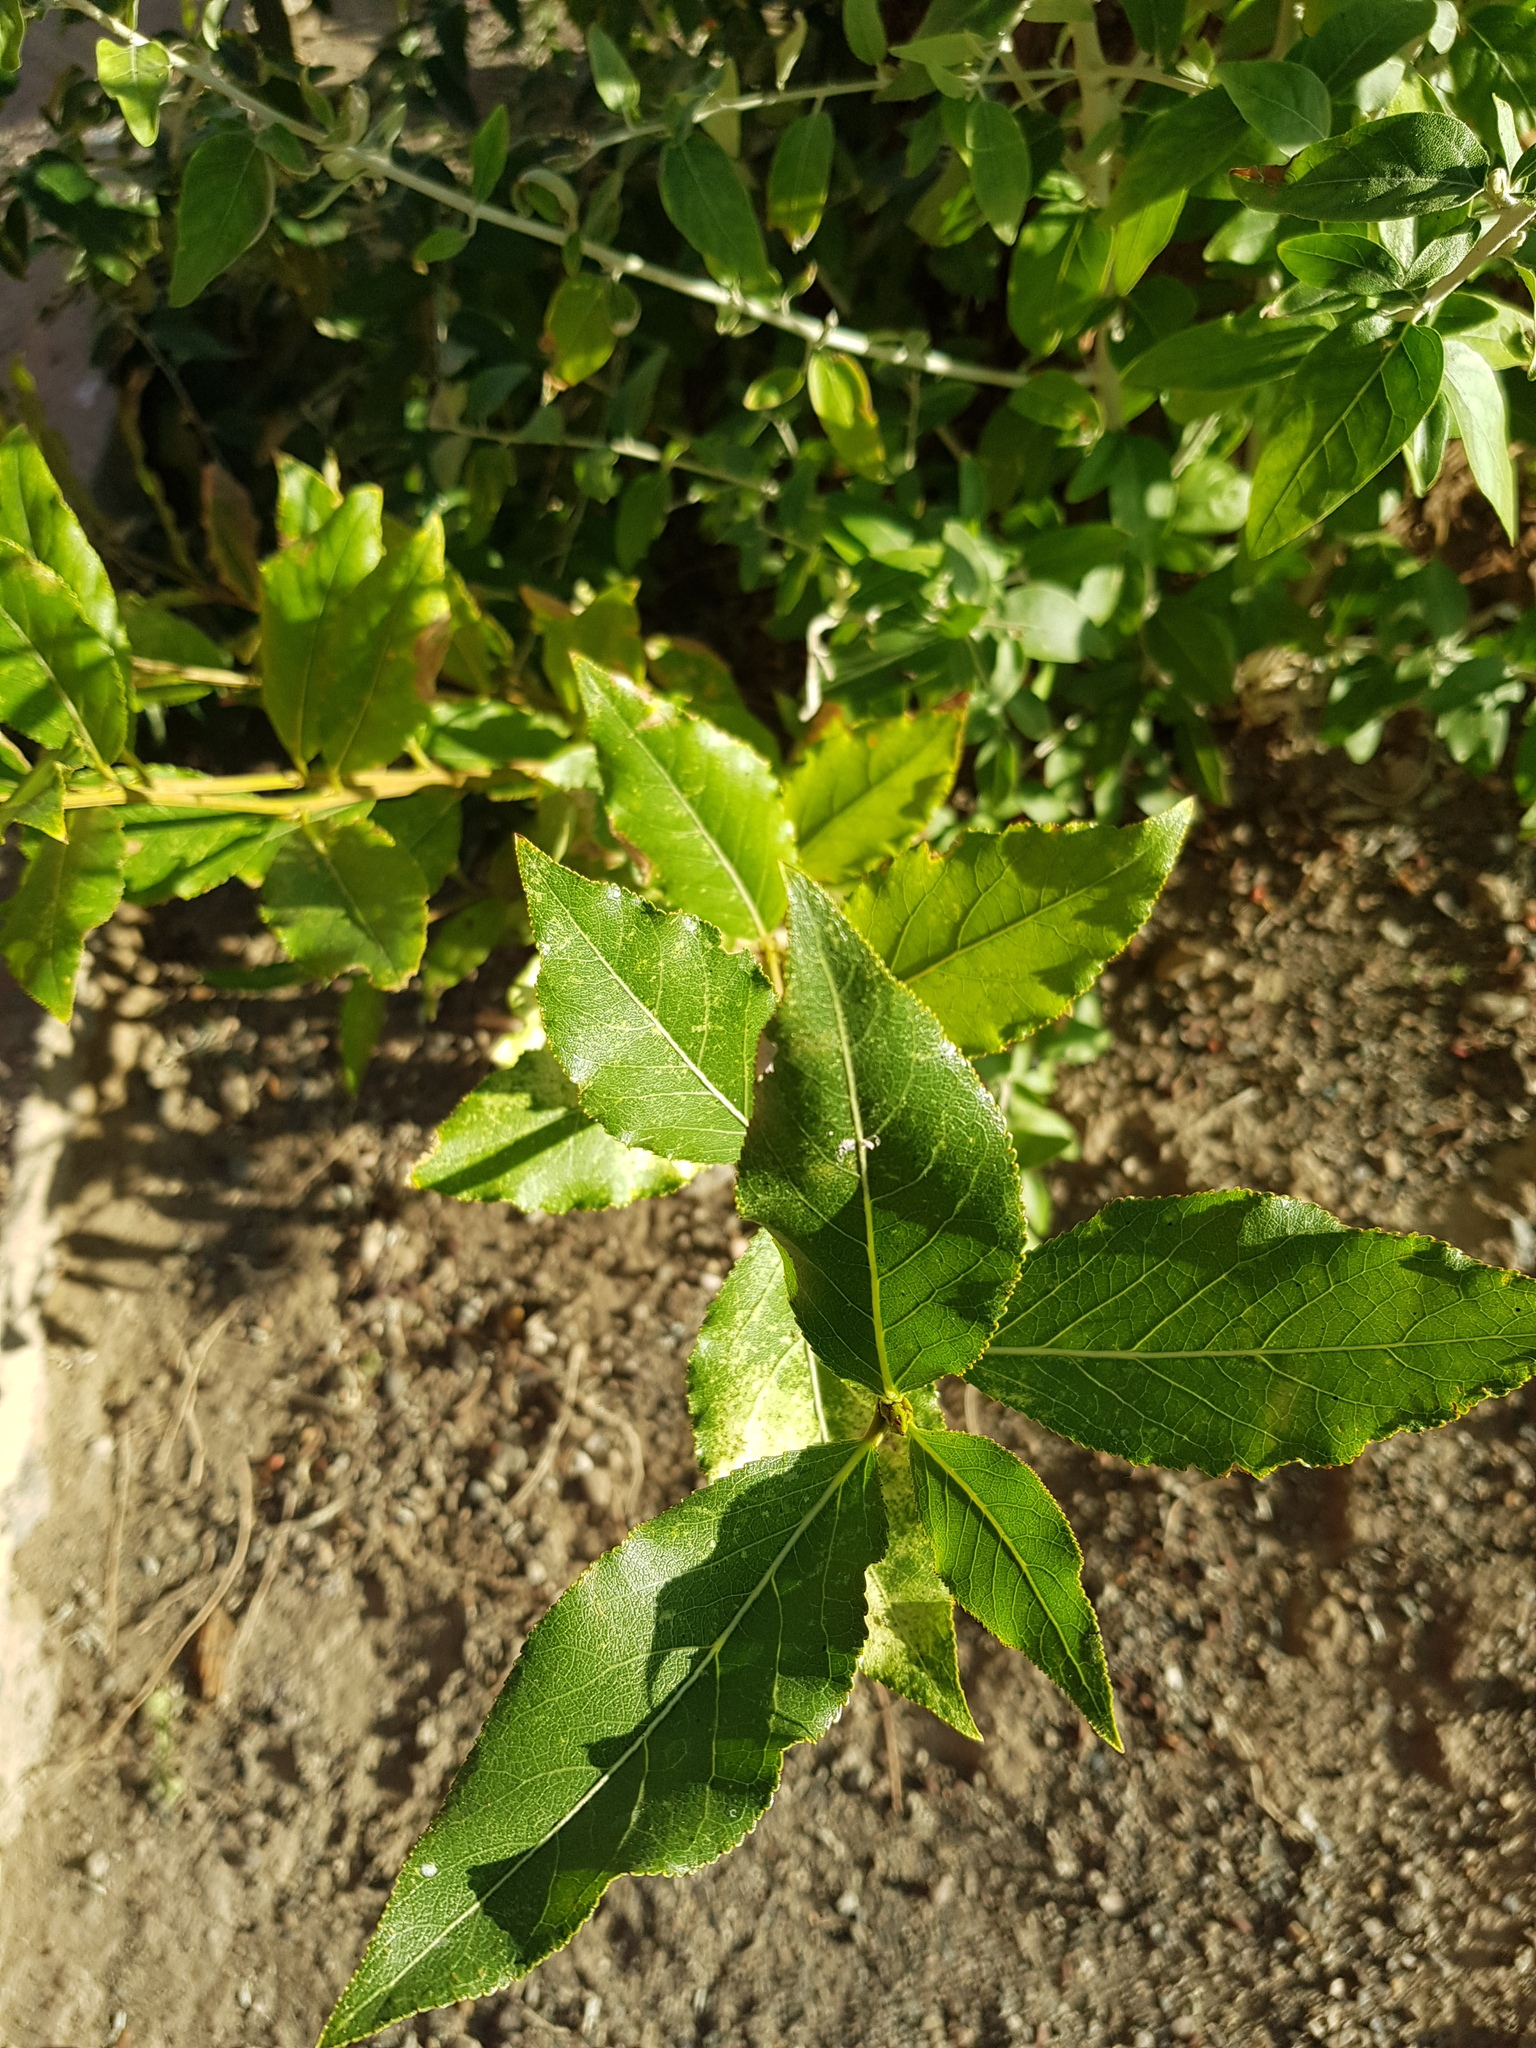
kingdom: Plantae
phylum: Tracheophyta
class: Magnoliopsida
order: Malpighiales
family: Salicaceae
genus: Populus
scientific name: Populus laurifolia
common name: Laurel-leaf poplar
